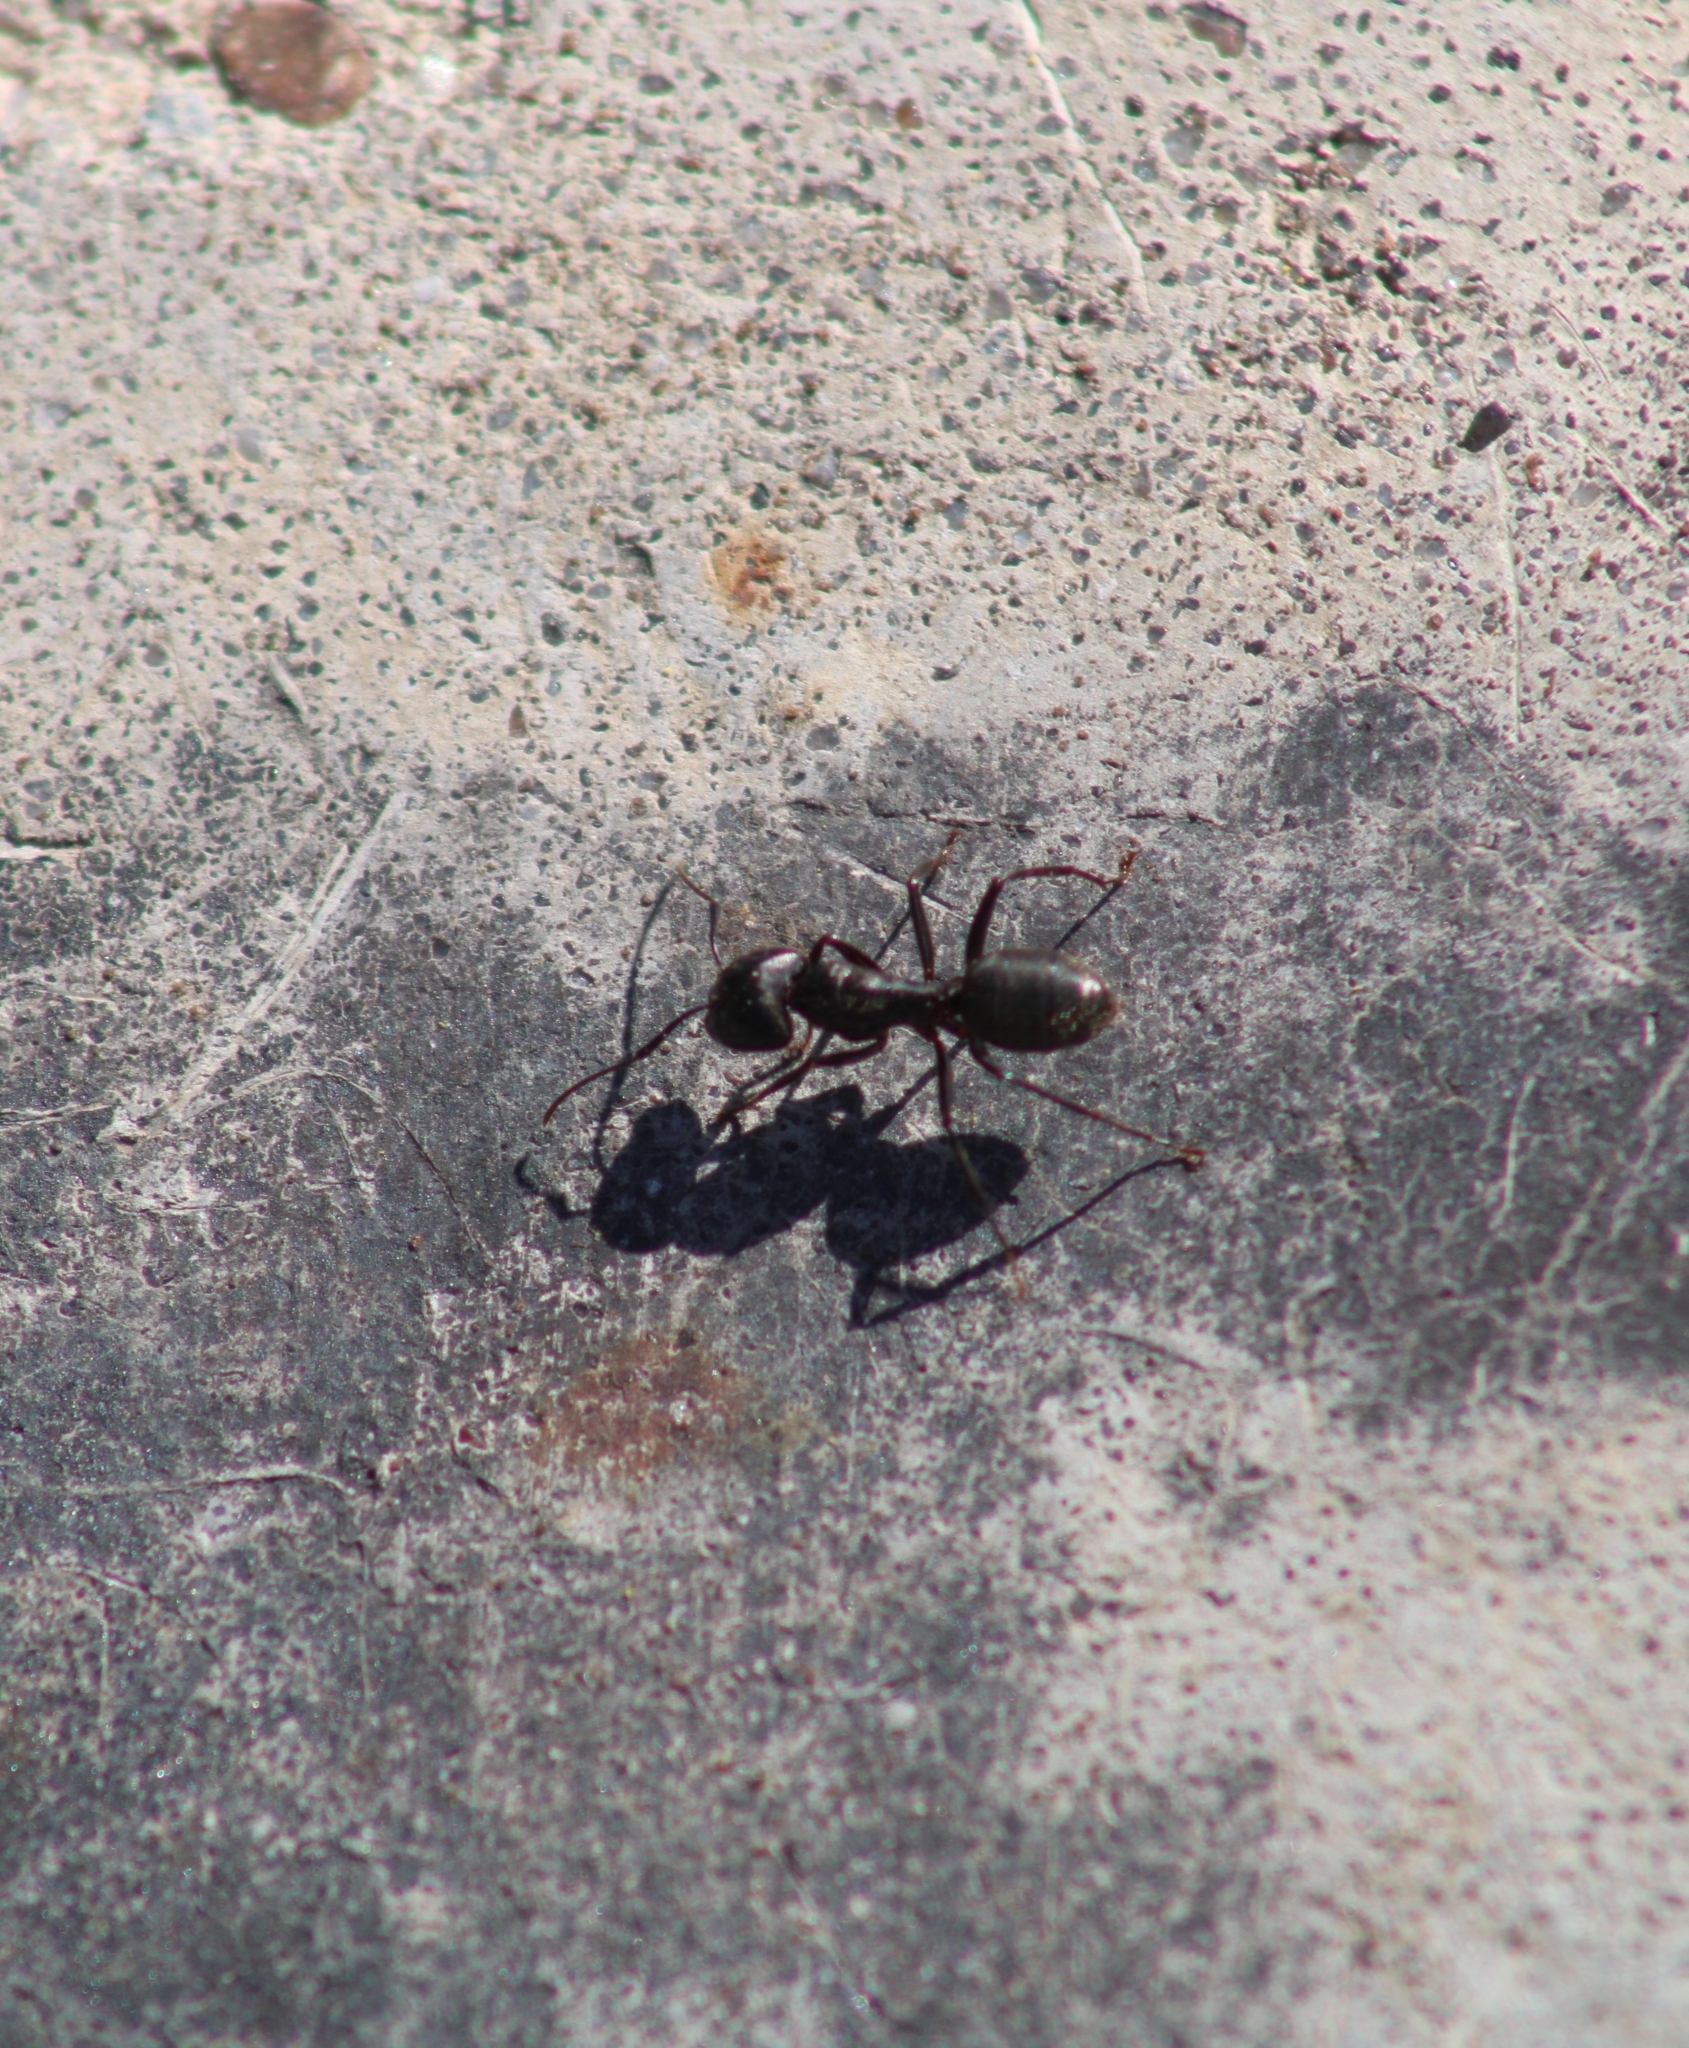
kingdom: Animalia
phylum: Arthropoda
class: Insecta
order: Hymenoptera
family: Formicidae
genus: Camponotus
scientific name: Camponotus pennsylvanicus
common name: Black carpenter ant
